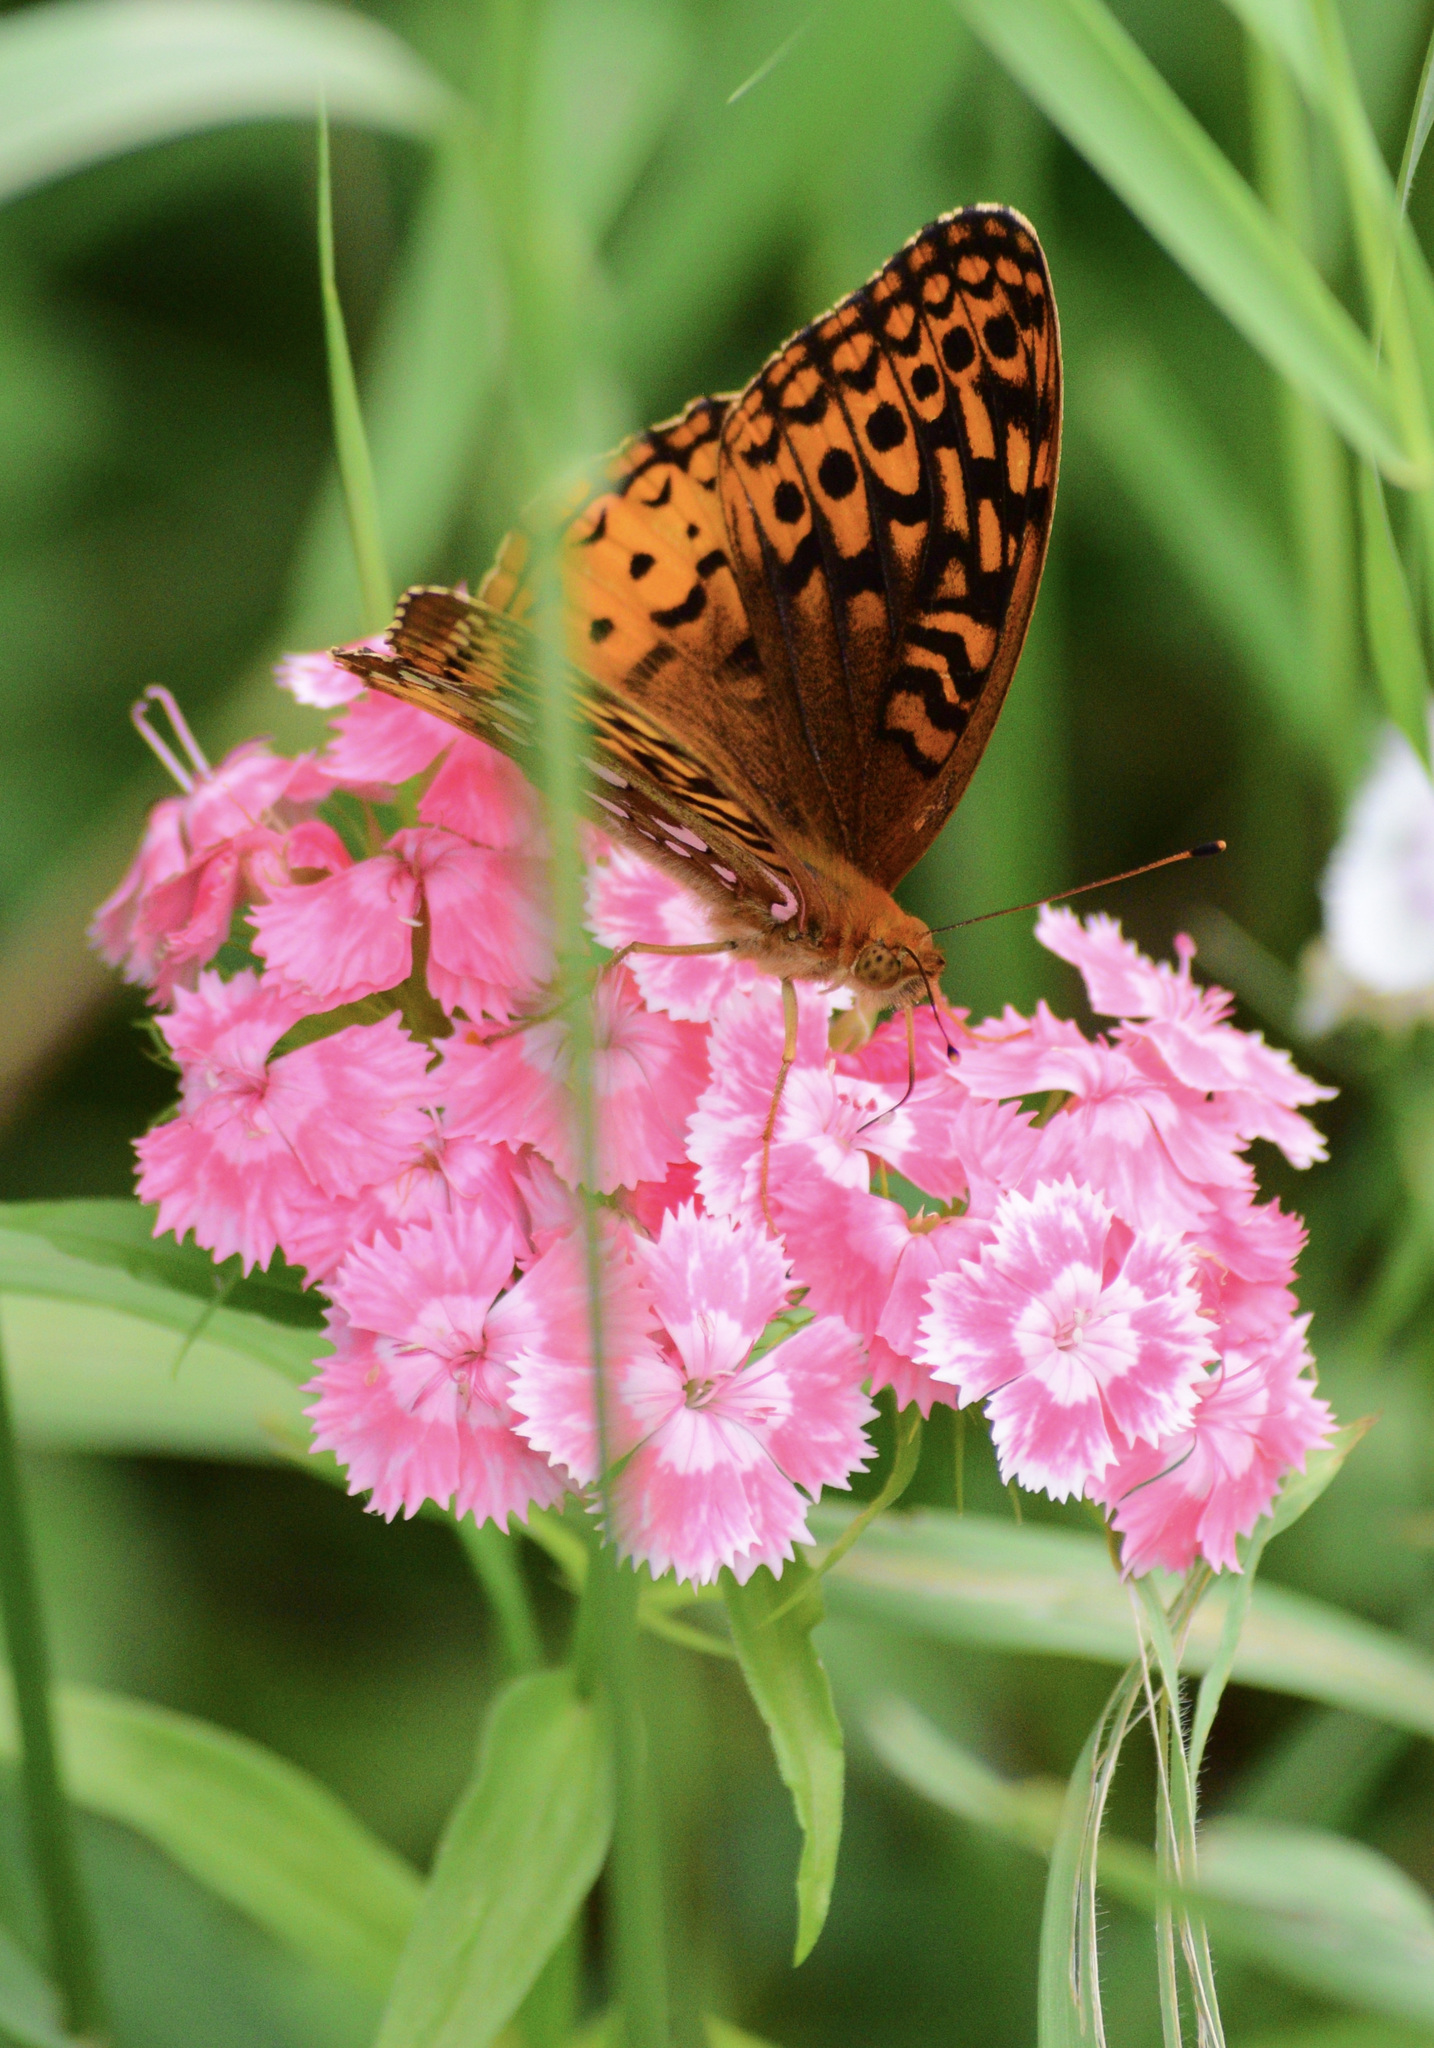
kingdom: Animalia
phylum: Arthropoda
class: Insecta
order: Lepidoptera
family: Nymphalidae
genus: Speyeria
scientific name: Speyeria cybele
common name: Great spangled fritillary
